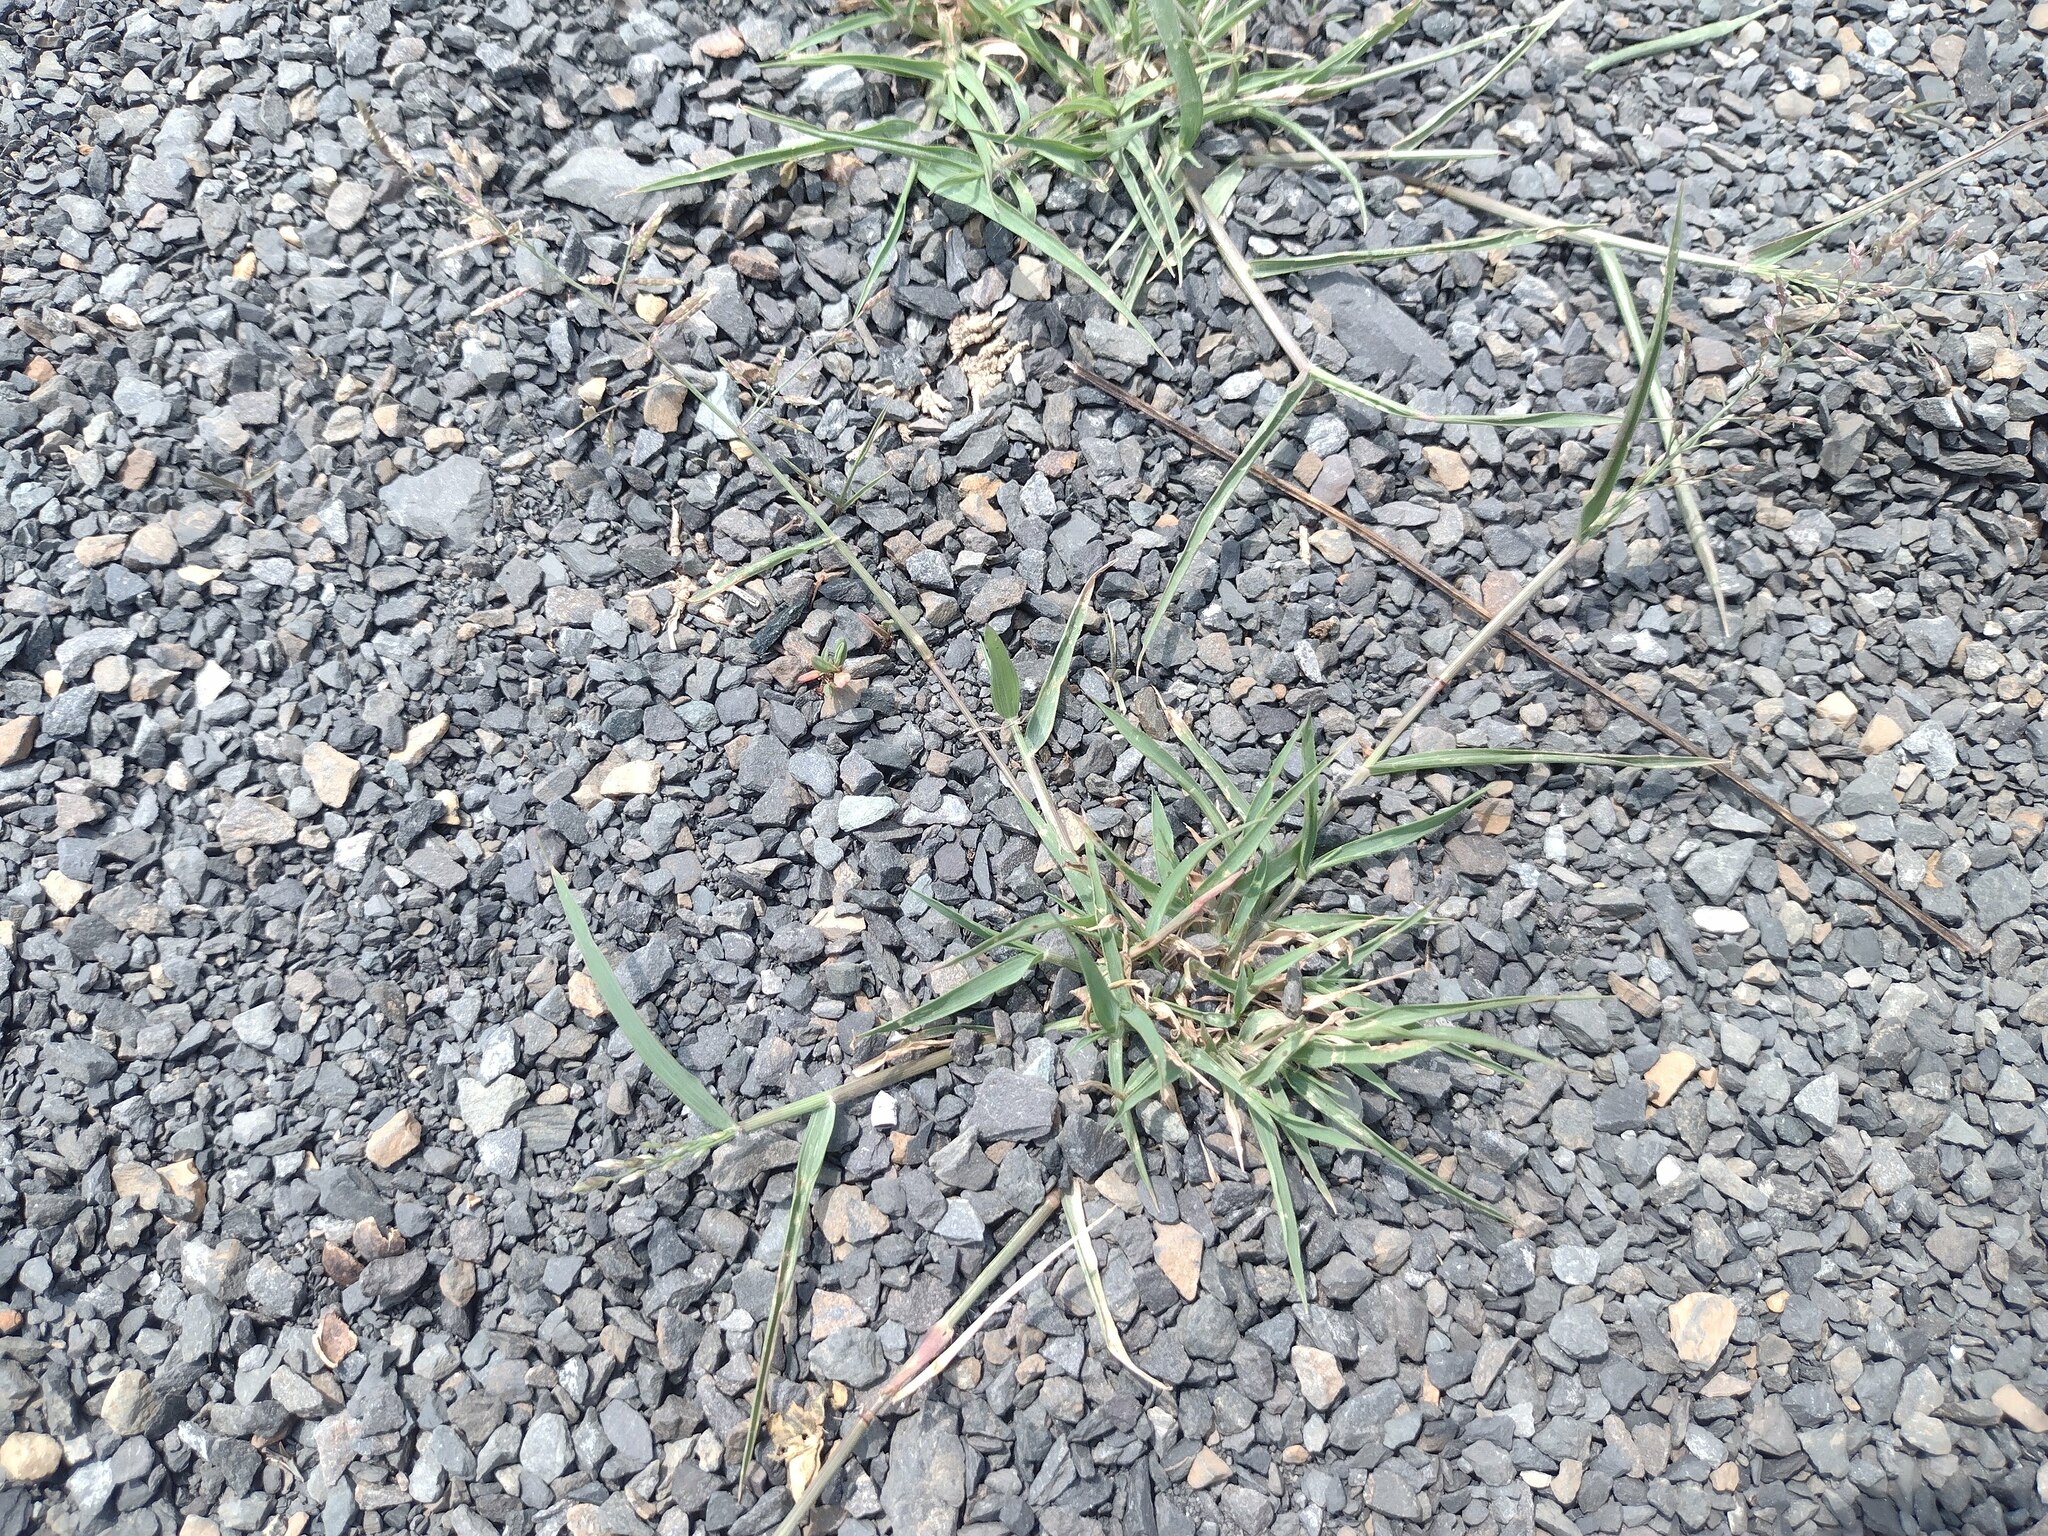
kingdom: Plantae
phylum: Tracheophyta
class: Liliopsida
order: Poales
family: Poaceae
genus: Eragrostis
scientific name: Eragrostis minor
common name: Small love-grass
